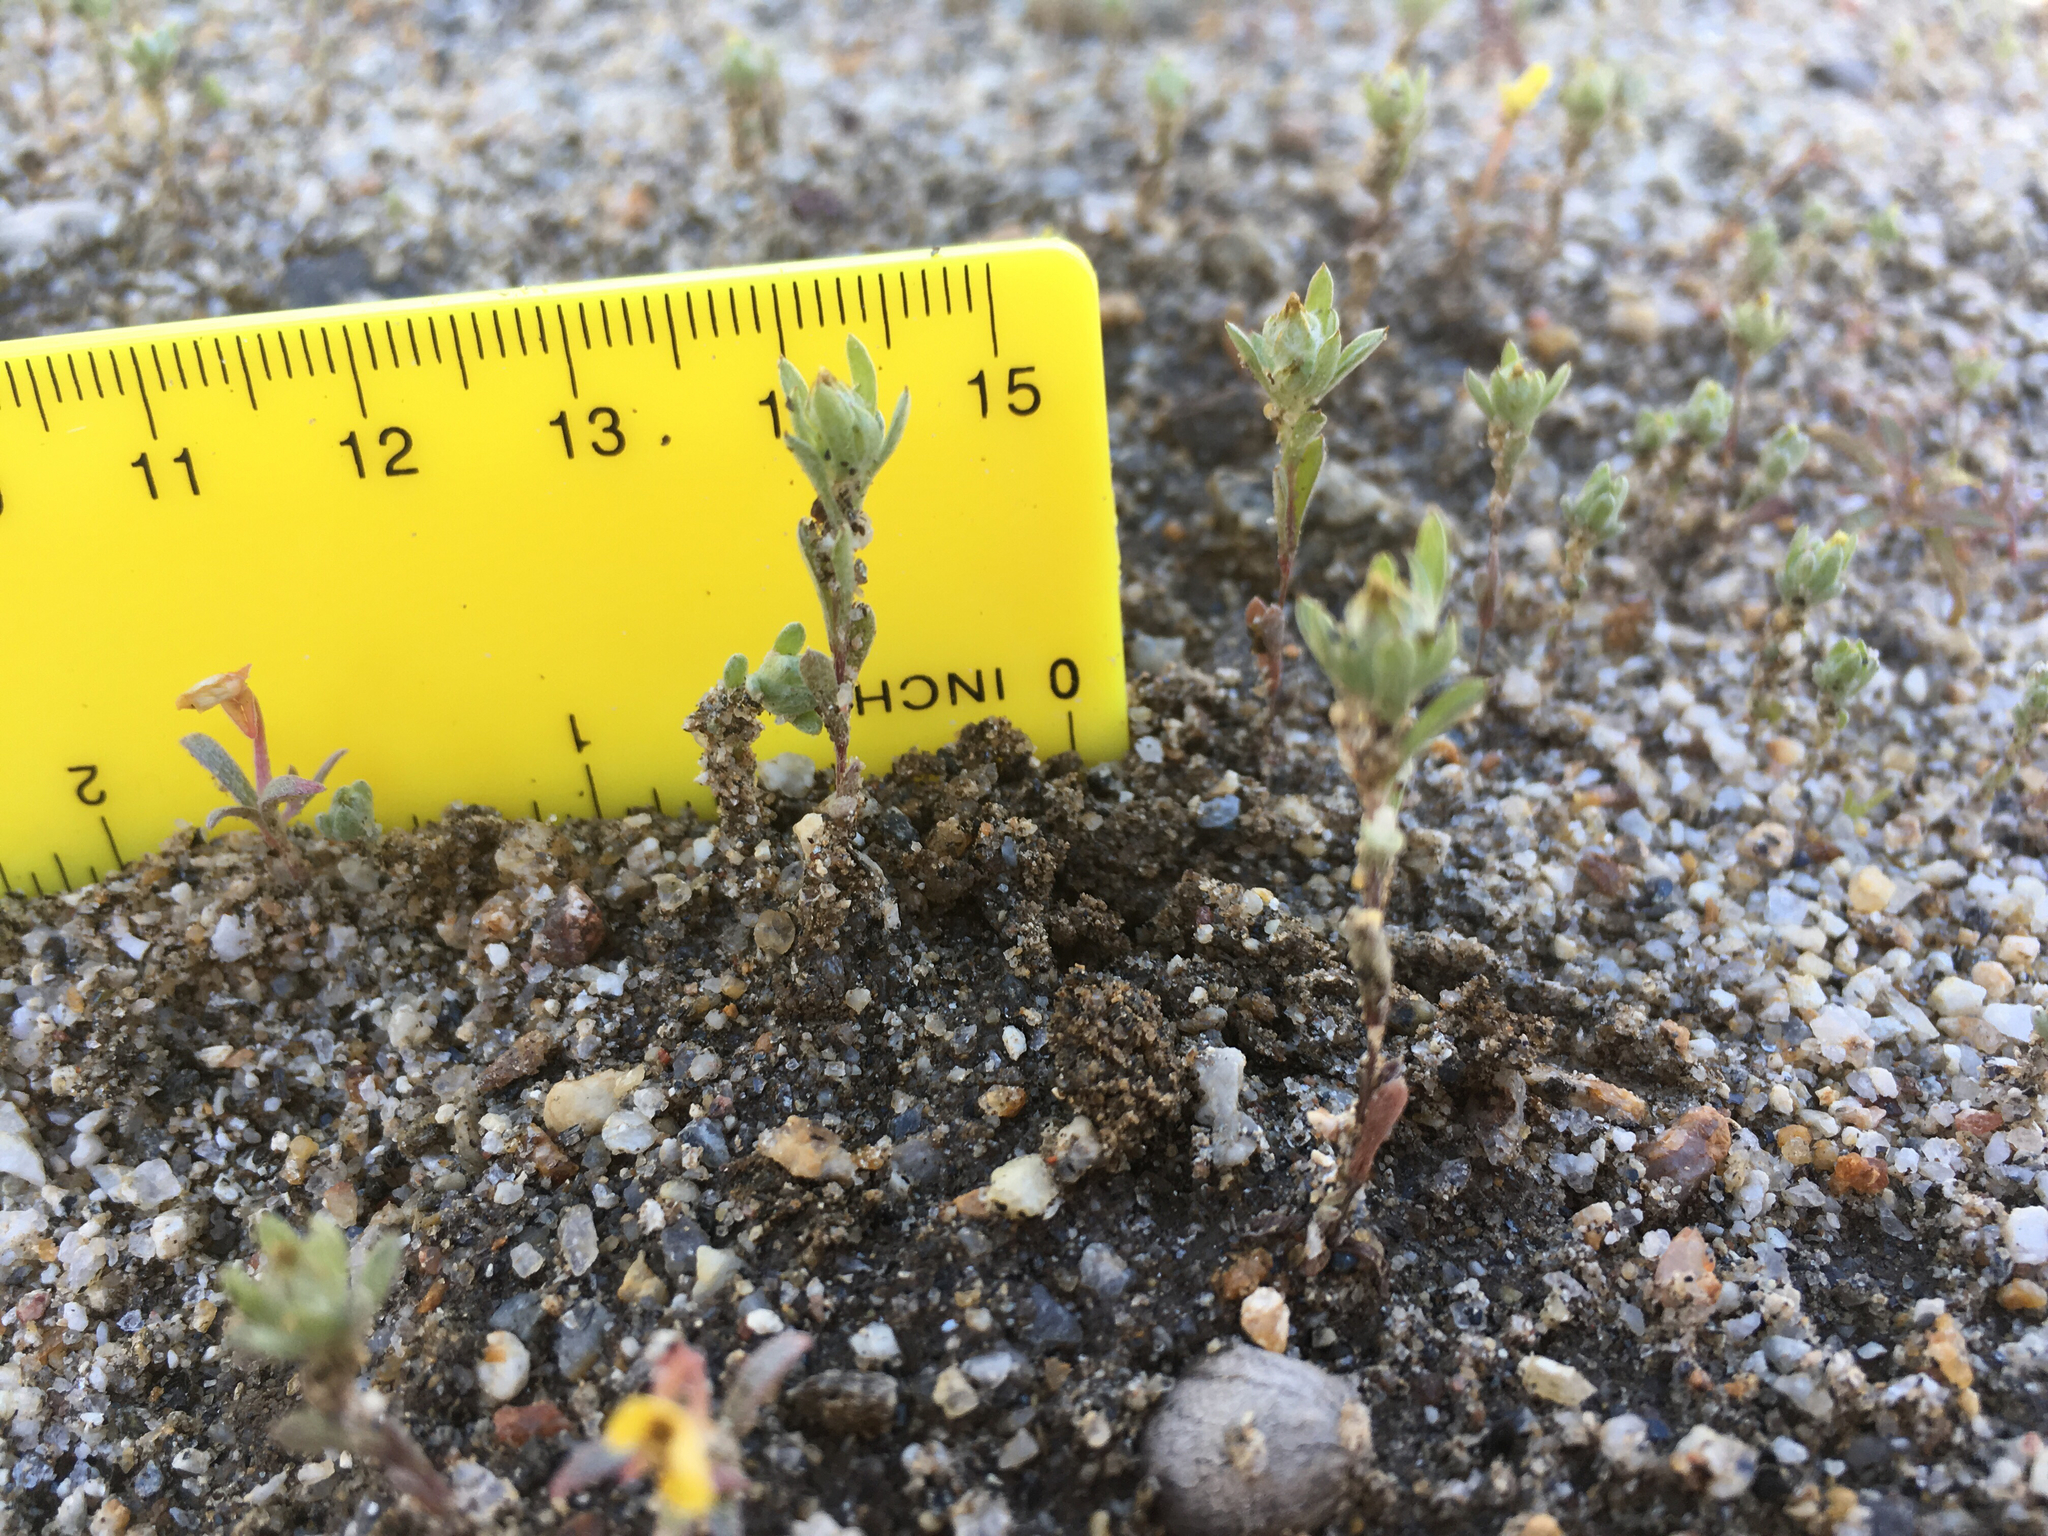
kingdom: Plantae
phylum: Tracheophyta
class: Magnoliopsida
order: Asterales
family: Asteraceae
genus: Logfia
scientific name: Logfia californica
